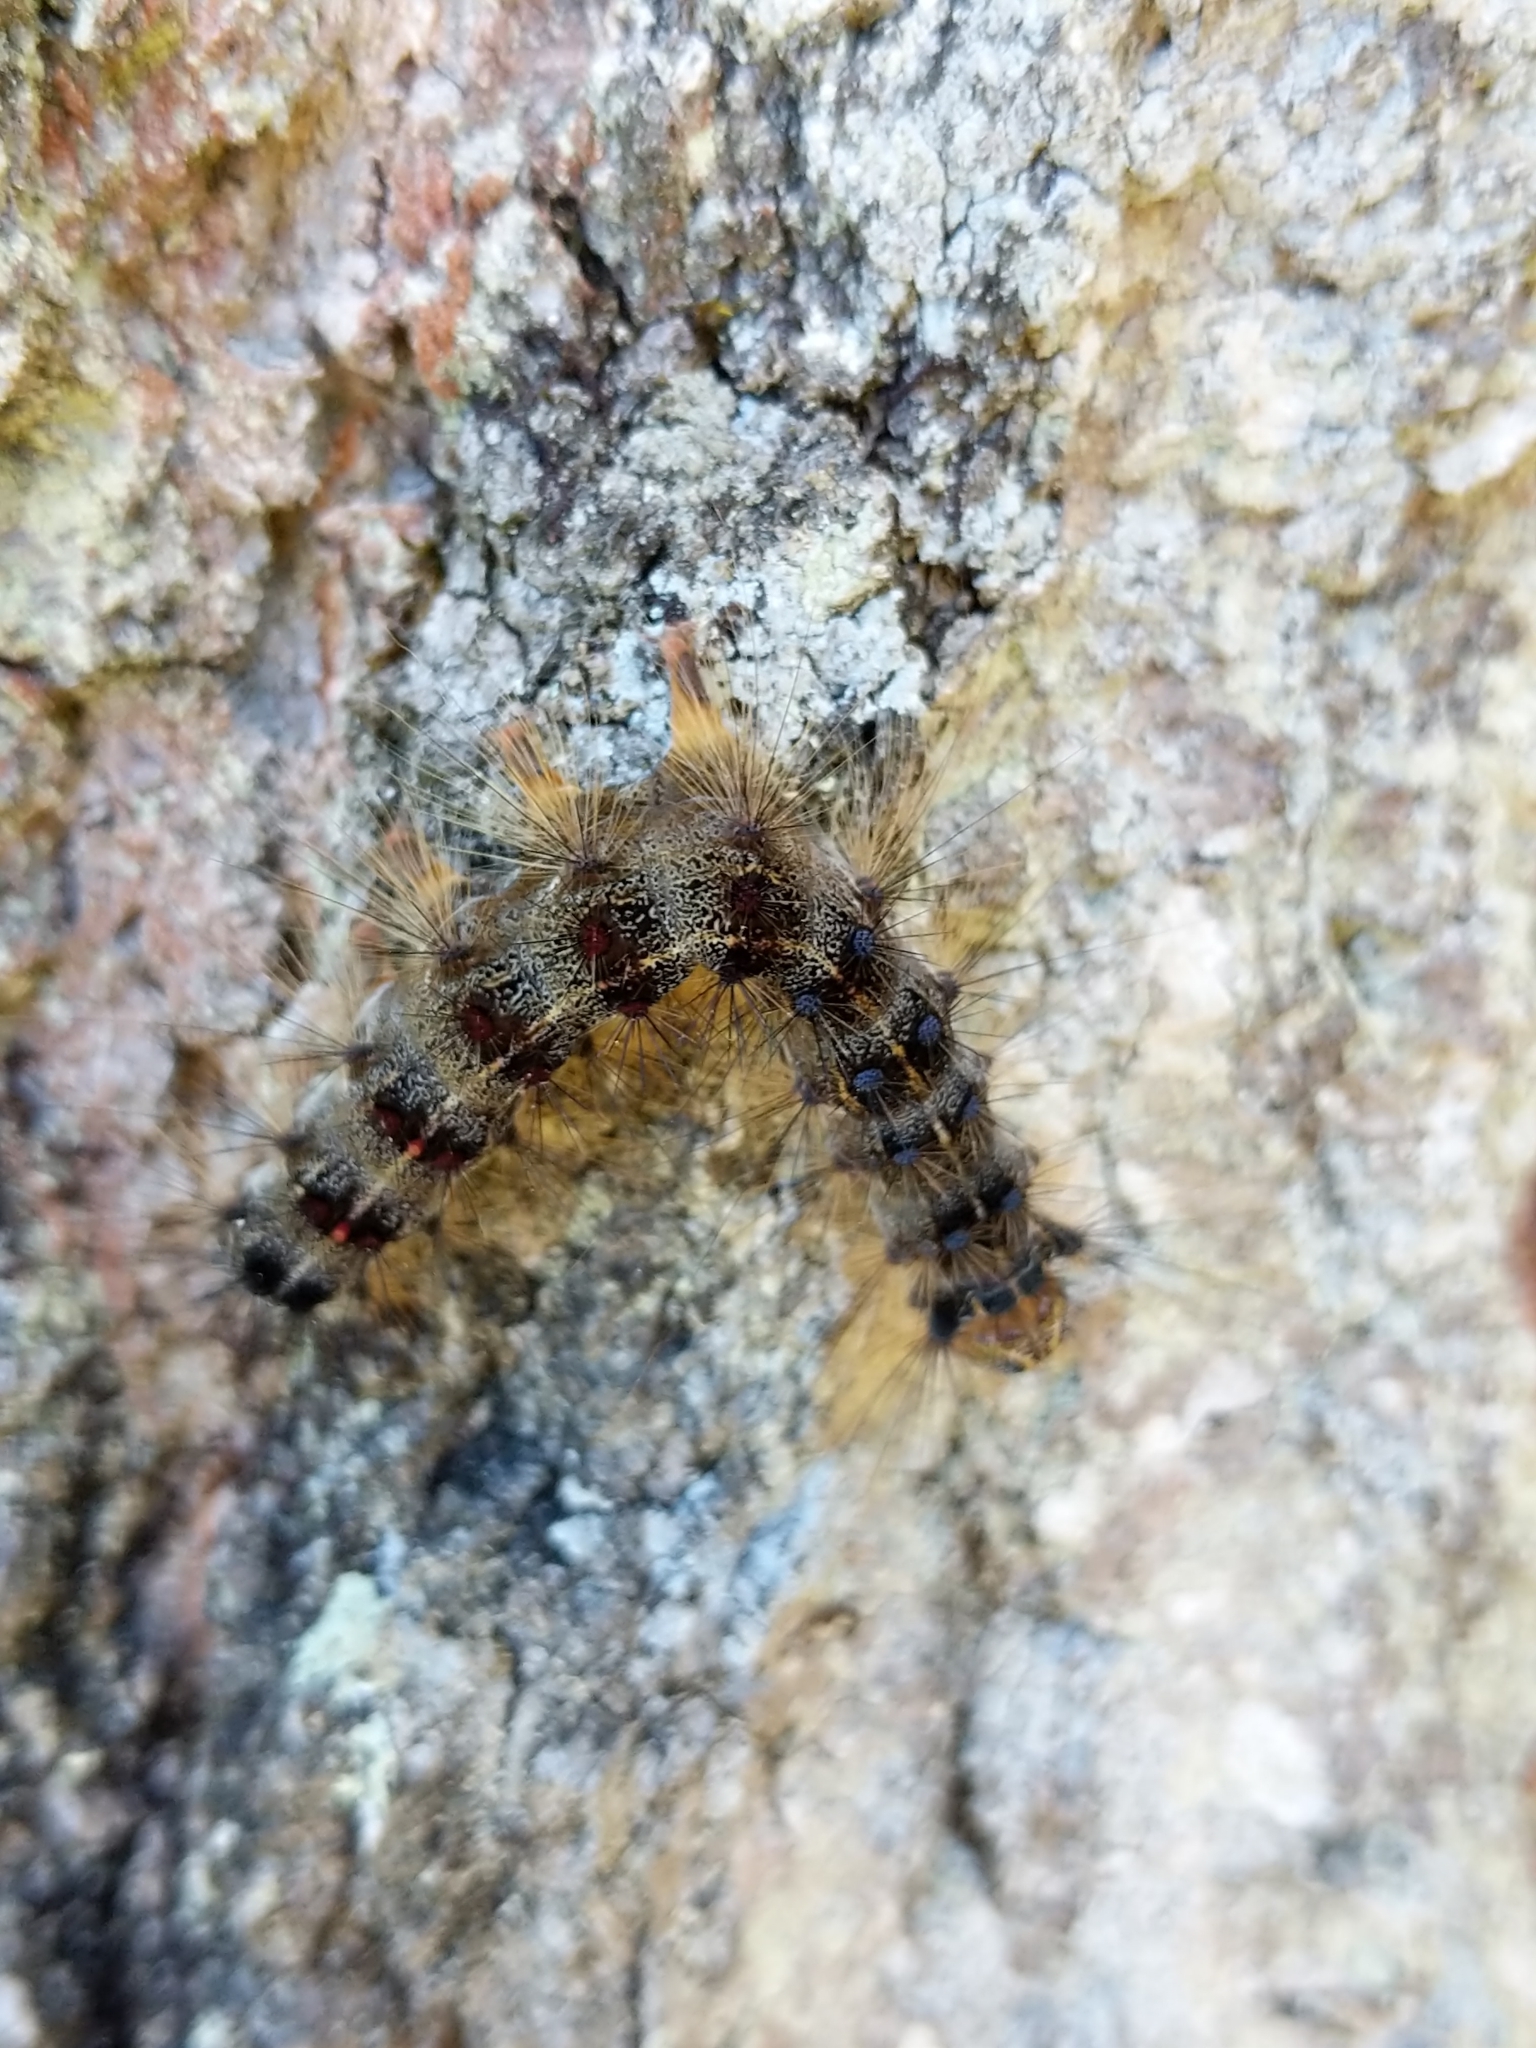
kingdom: Animalia
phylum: Arthropoda
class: Insecta
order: Lepidoptera
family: Erebidae
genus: Lymantria
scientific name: Lymantria dispar
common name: Gypsy moth
